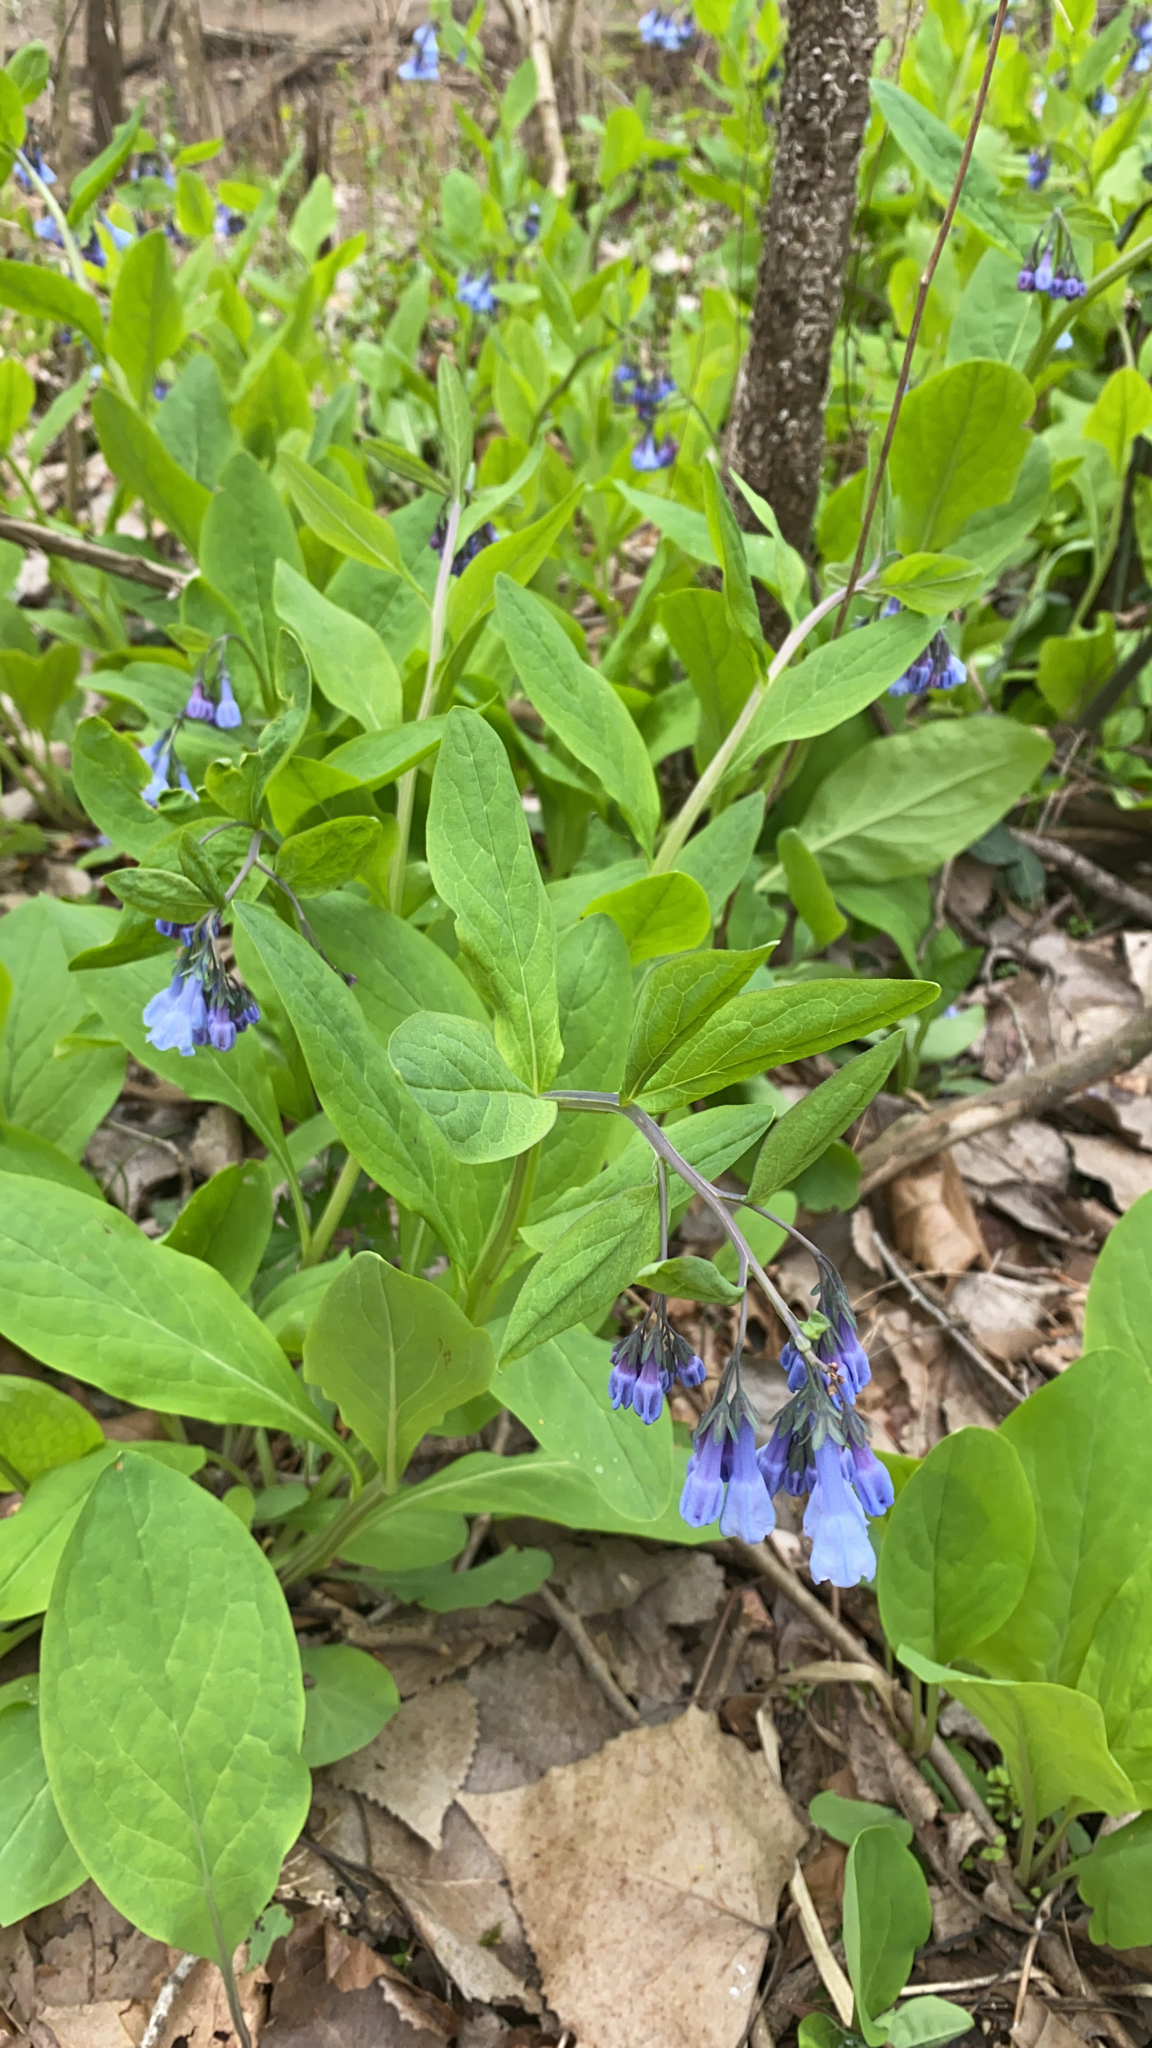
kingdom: Plantae
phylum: Tracheophyta
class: Magnoliopsida
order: Boraginales
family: Boraginaceae
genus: Mertensia
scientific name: Mertensia virginica
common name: Virginia bluebells
